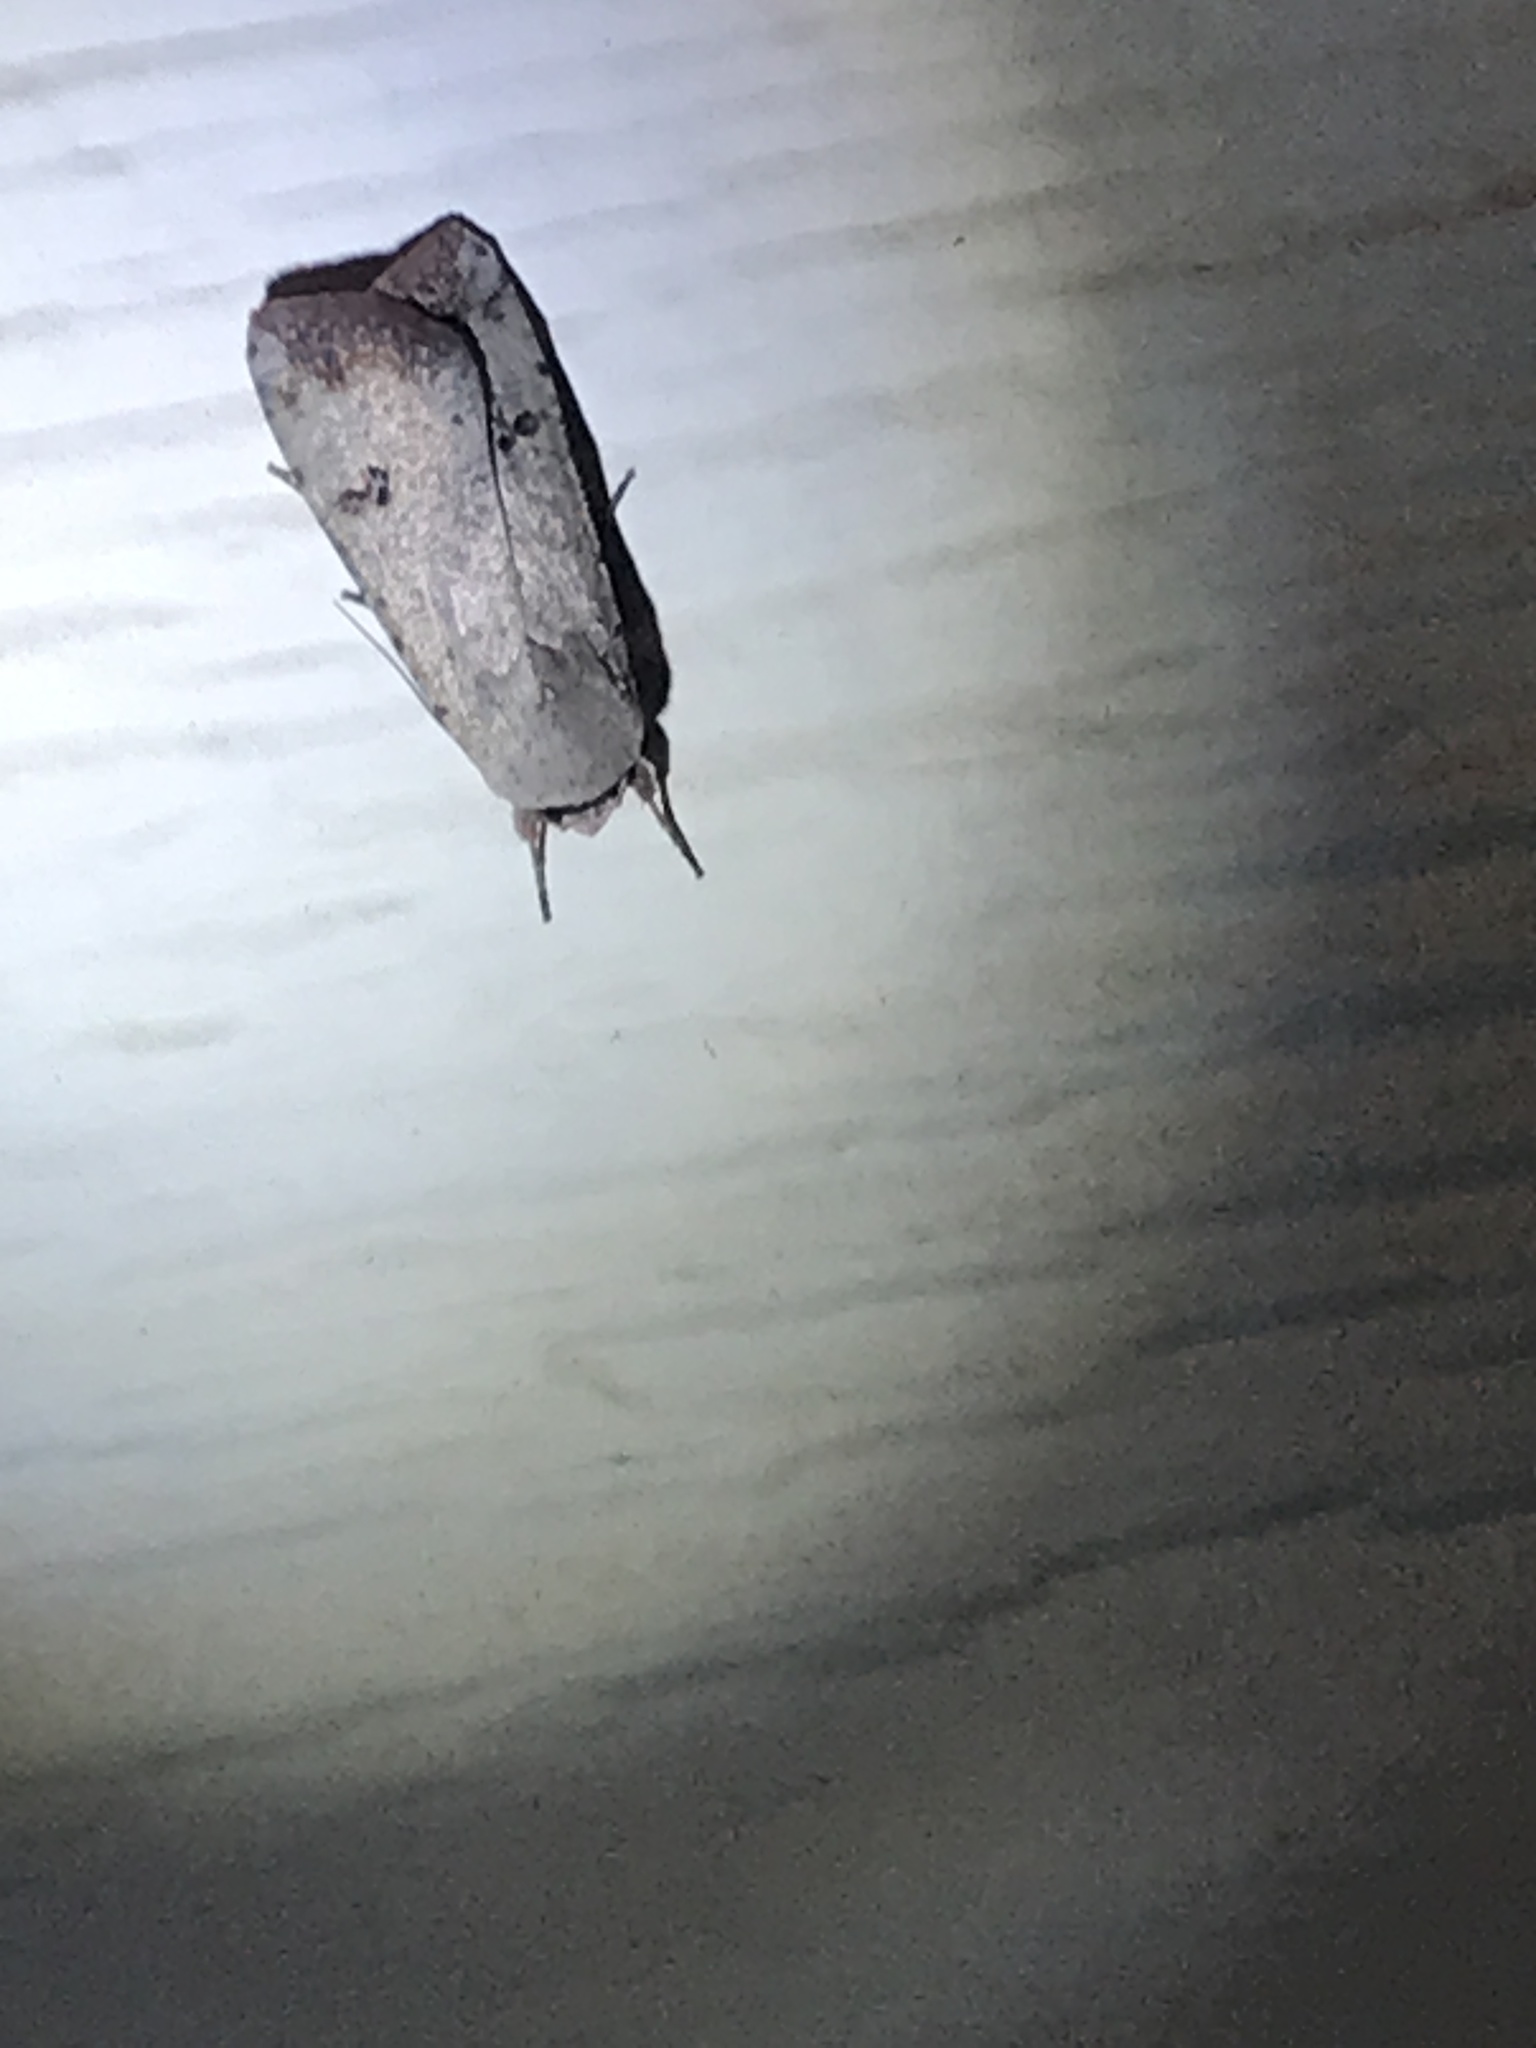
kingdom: Animalia
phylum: Arthropoda
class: Insecta
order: Lepidoptera
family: Noctuidae
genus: Anicla
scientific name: Anicla infecta
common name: Green cutworm
